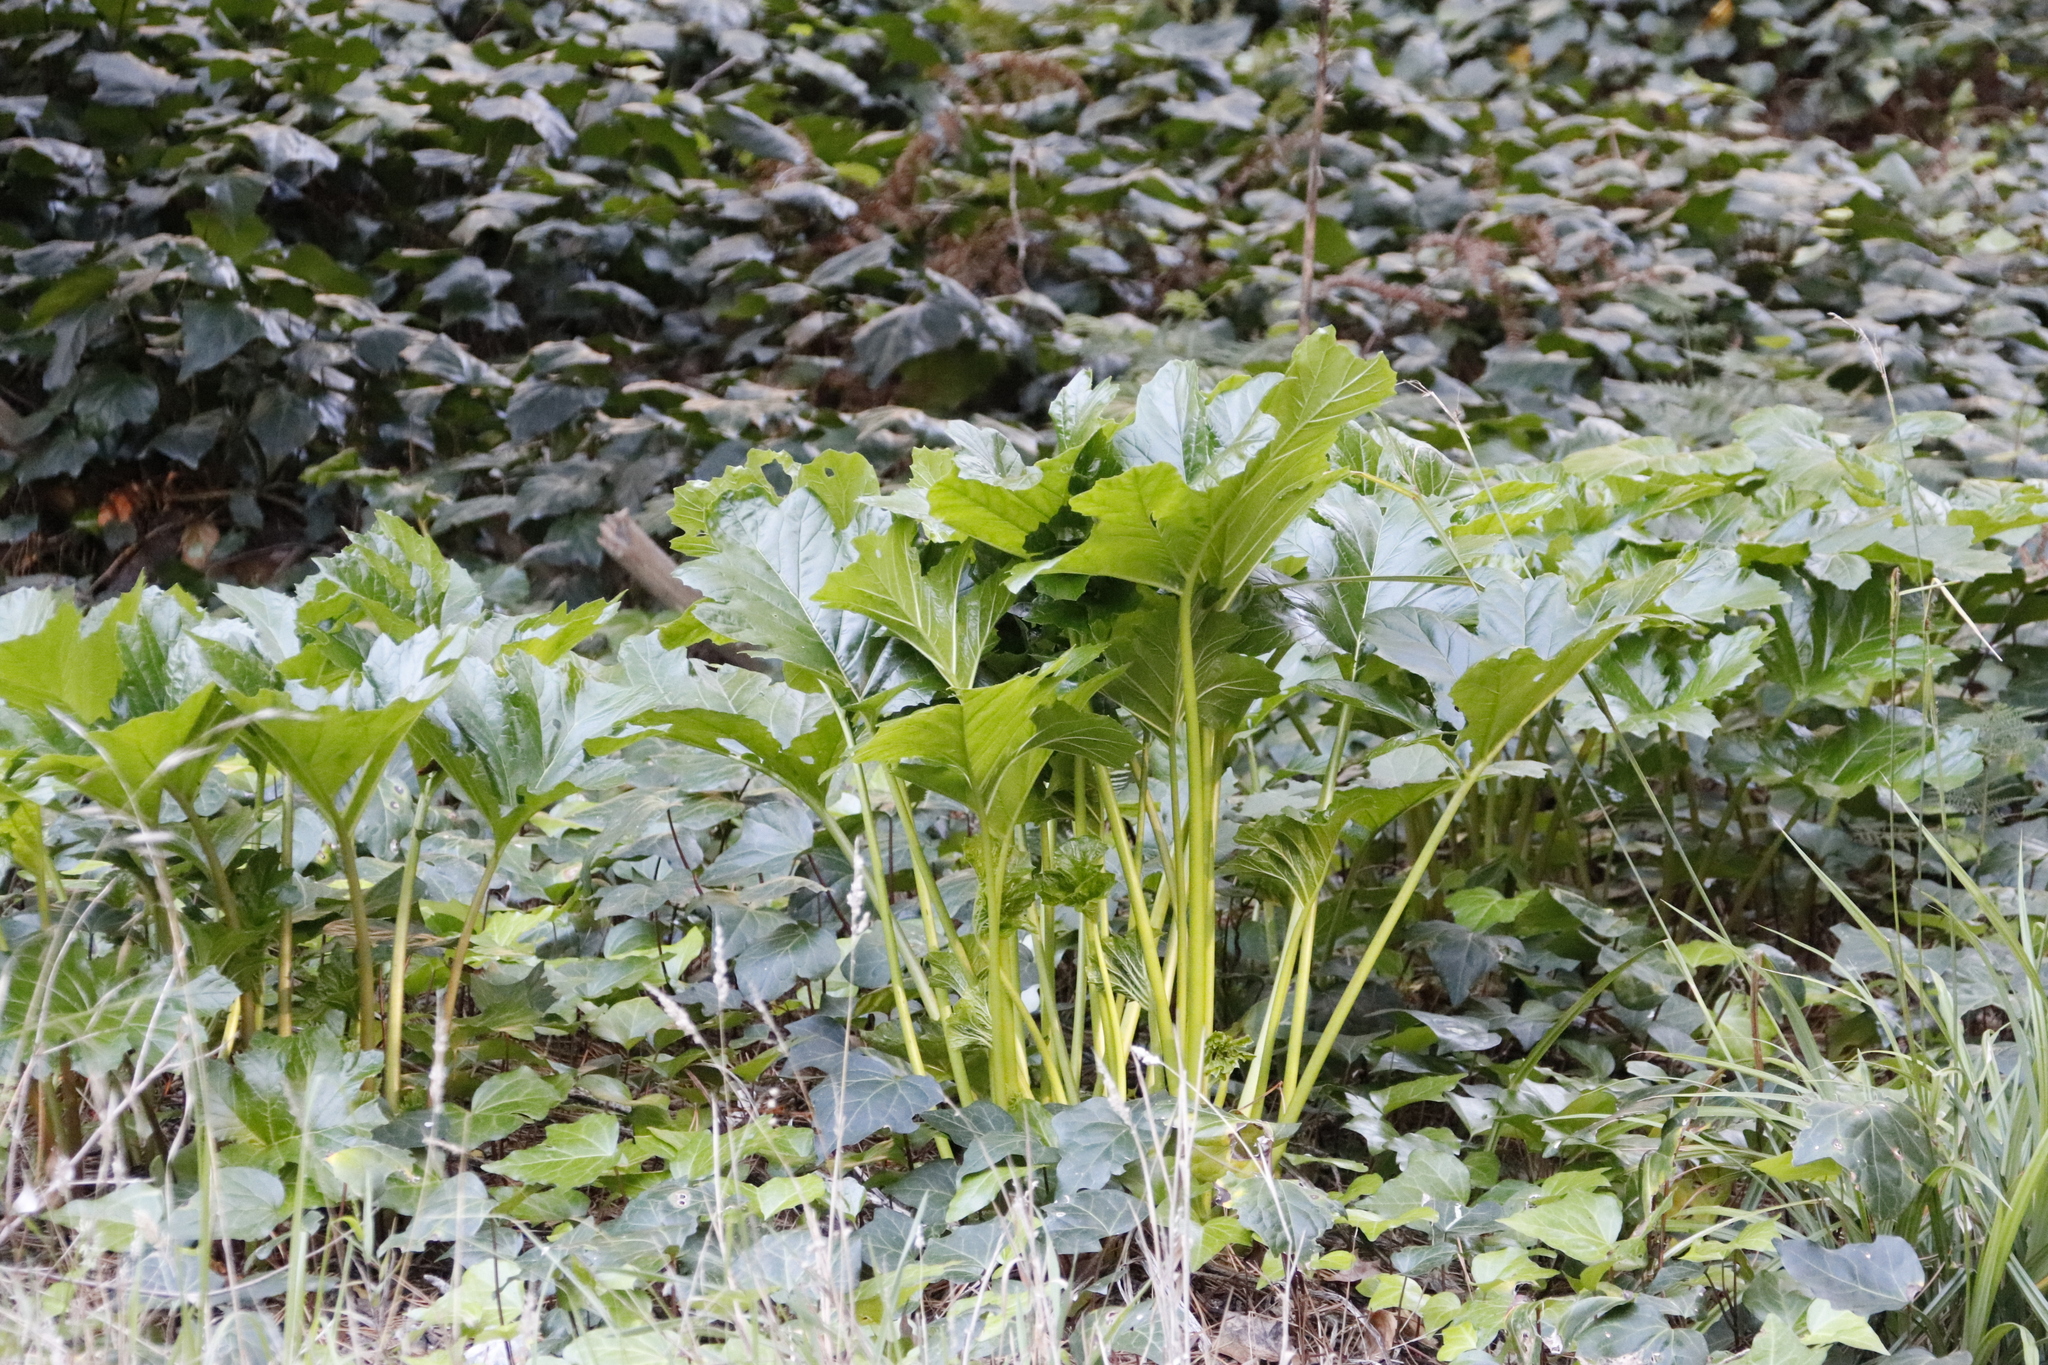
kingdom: Plantae
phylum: Tracheophyta
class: Magnoliopsida
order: Lamiales
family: Acanthaceae
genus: Acanthus
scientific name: Acanthus mollis
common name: Bear's-breech
